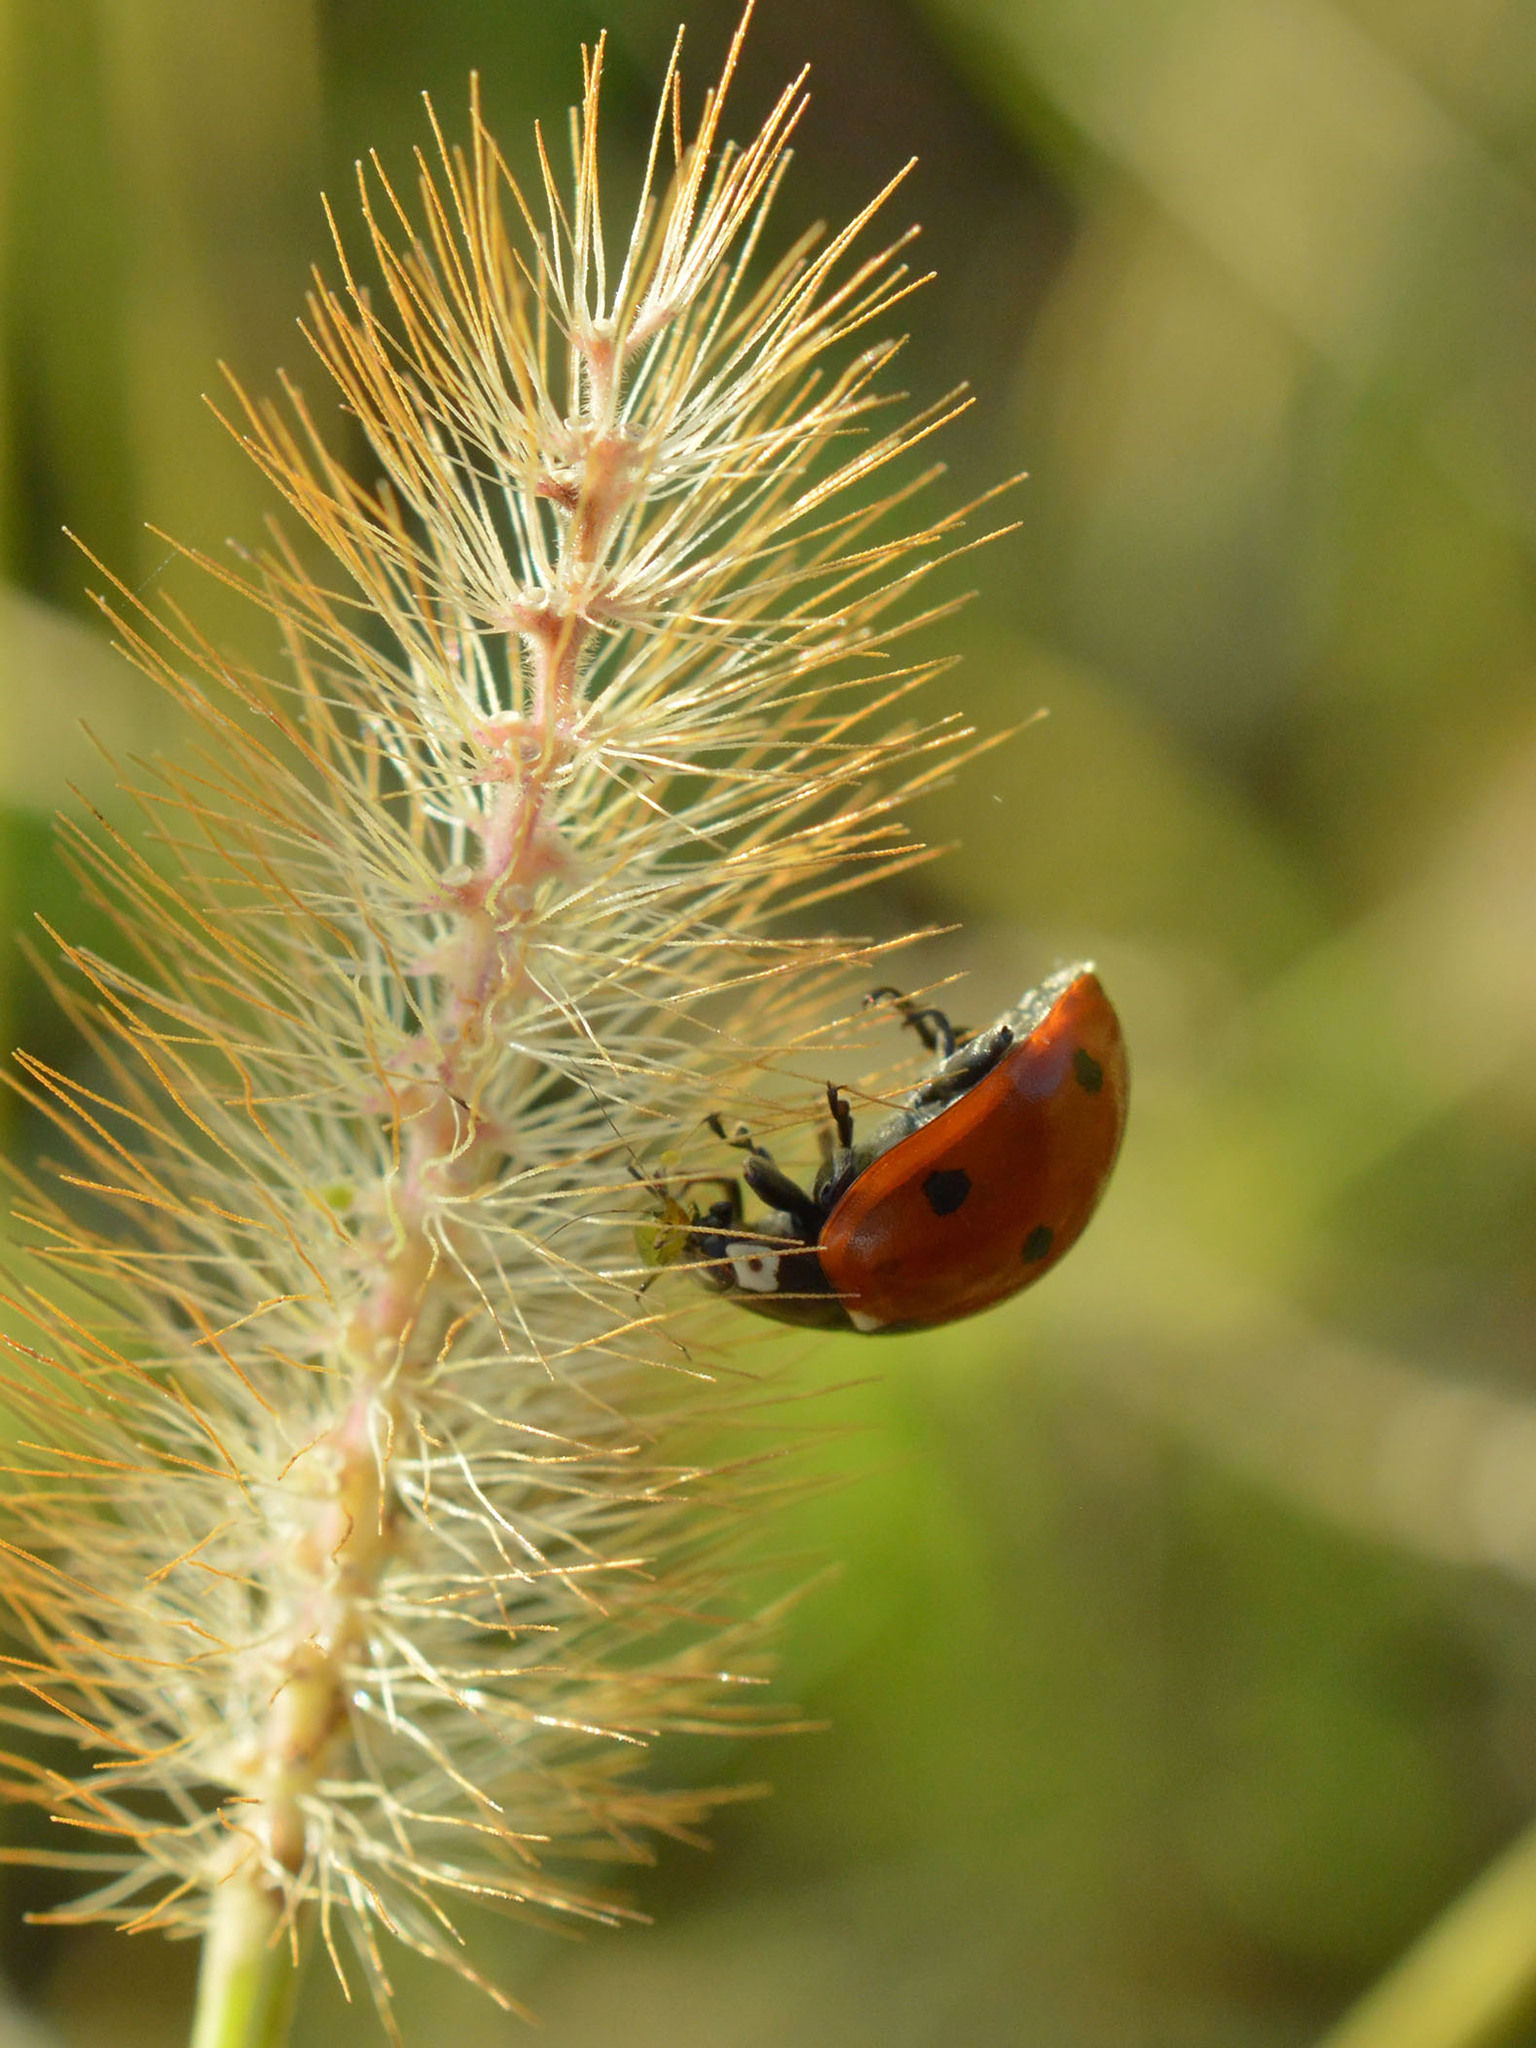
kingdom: Animalia
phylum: Arthropoda
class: Insecta
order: Coleoptera
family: Coccinellidae
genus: Coccinella
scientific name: Coccinella septempunctata
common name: Sevenspotted lady beetle
